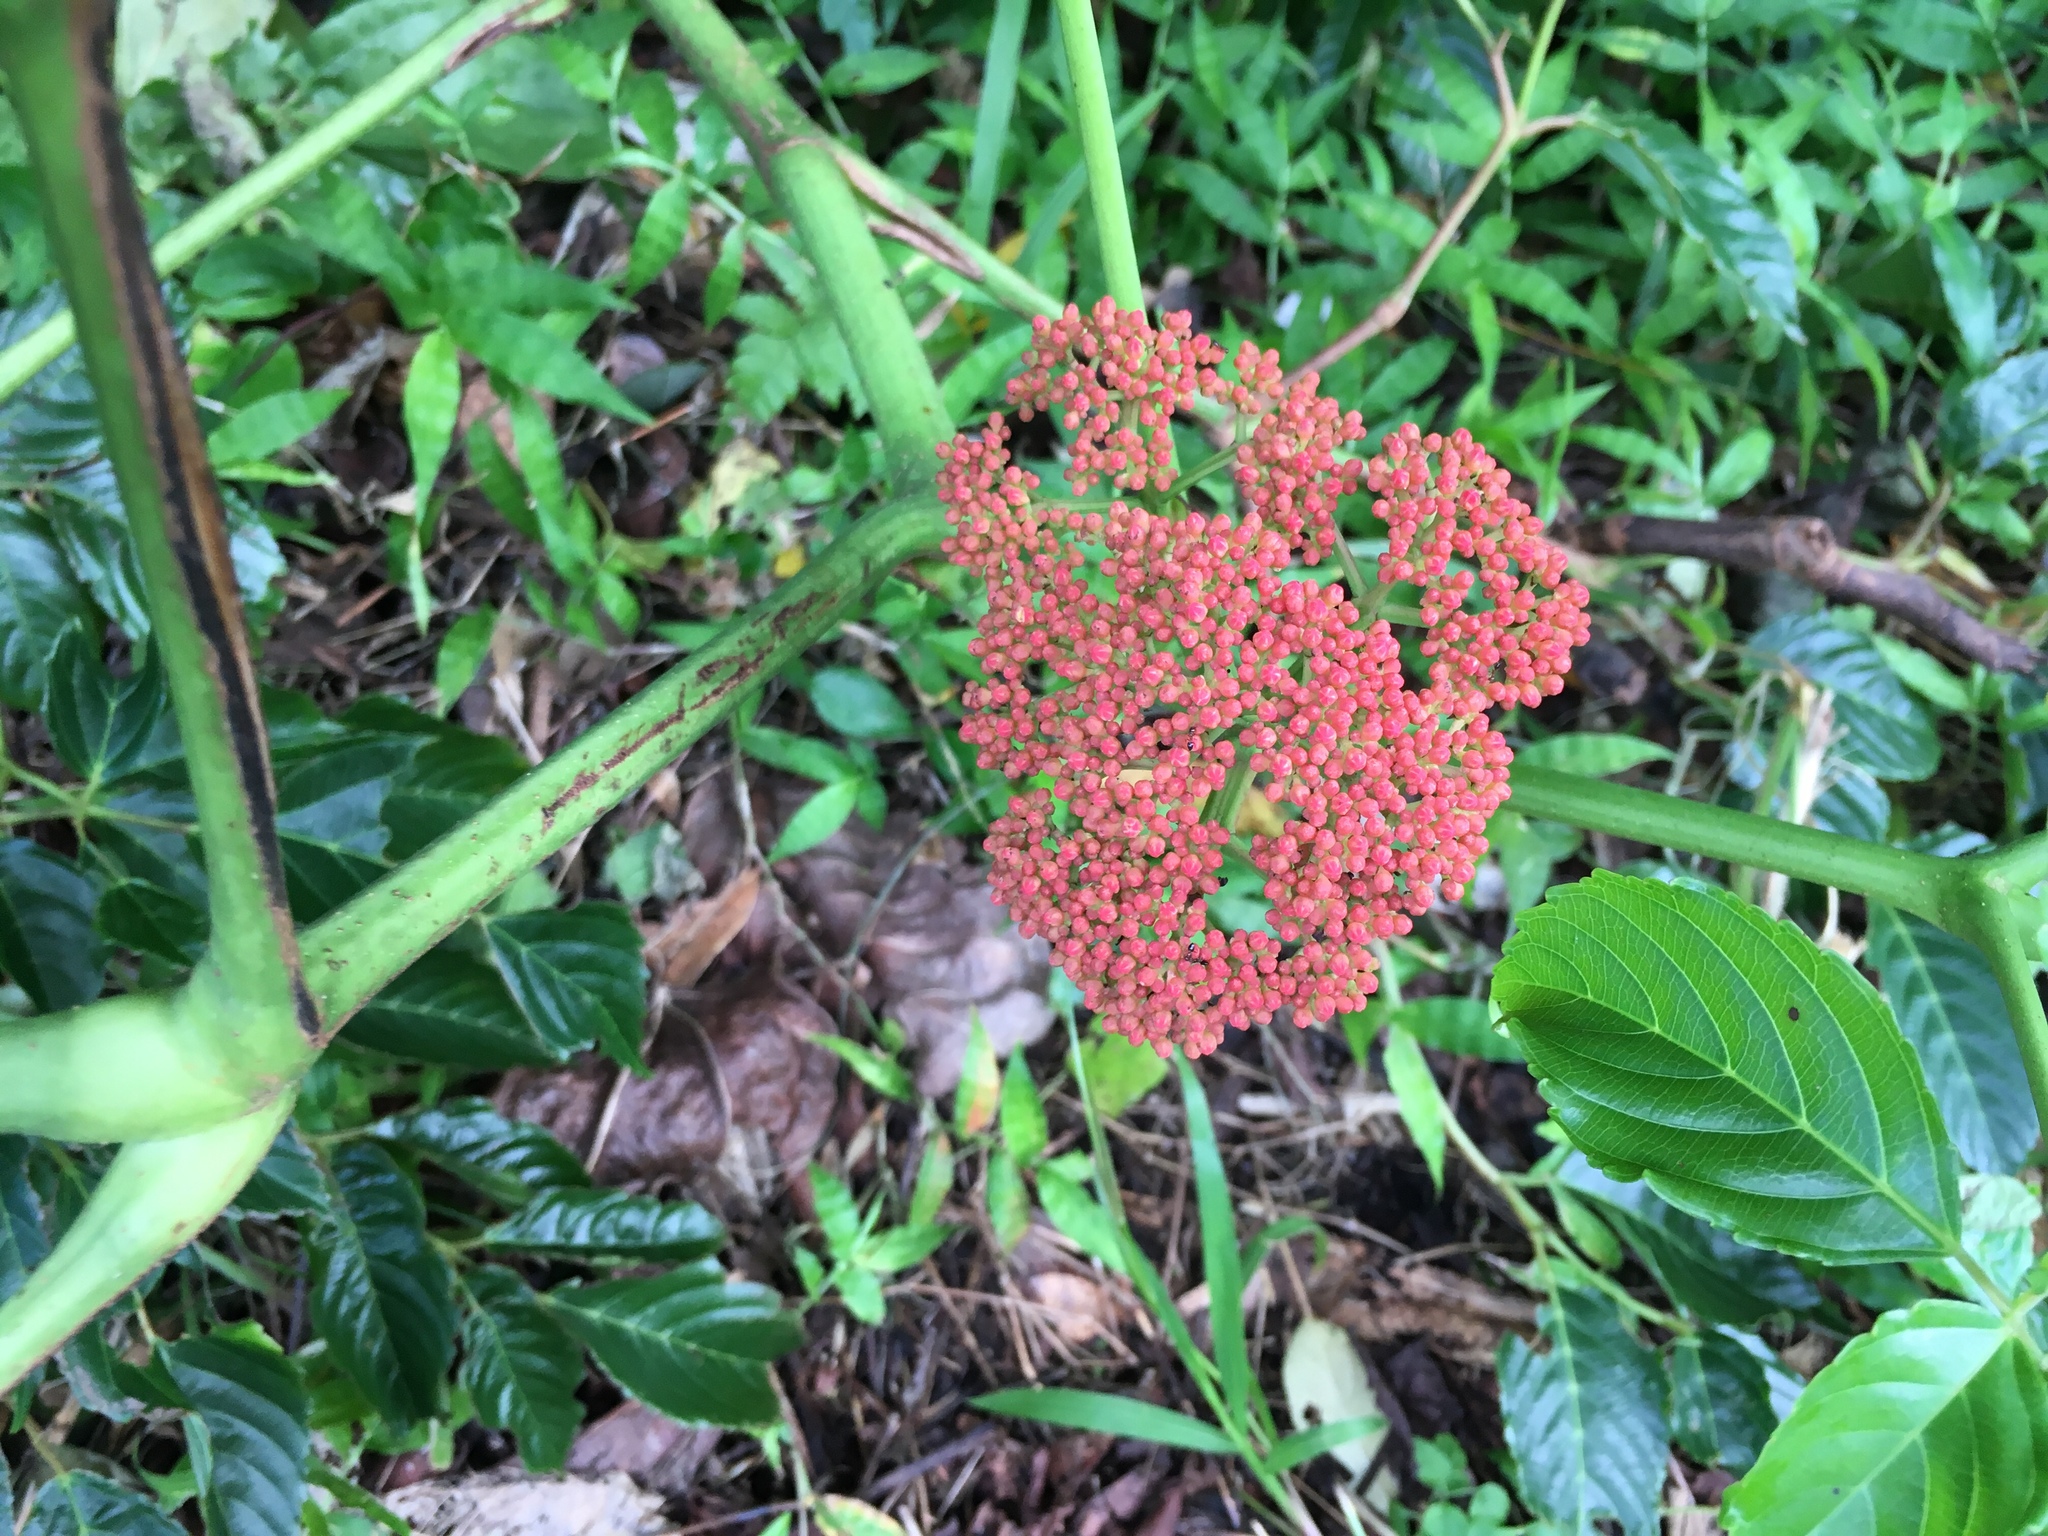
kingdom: Plantae
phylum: Tracheophyta
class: Magnoliopsida
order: Vitales
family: Vitaceae
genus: Leea
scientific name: Leea guineensis
